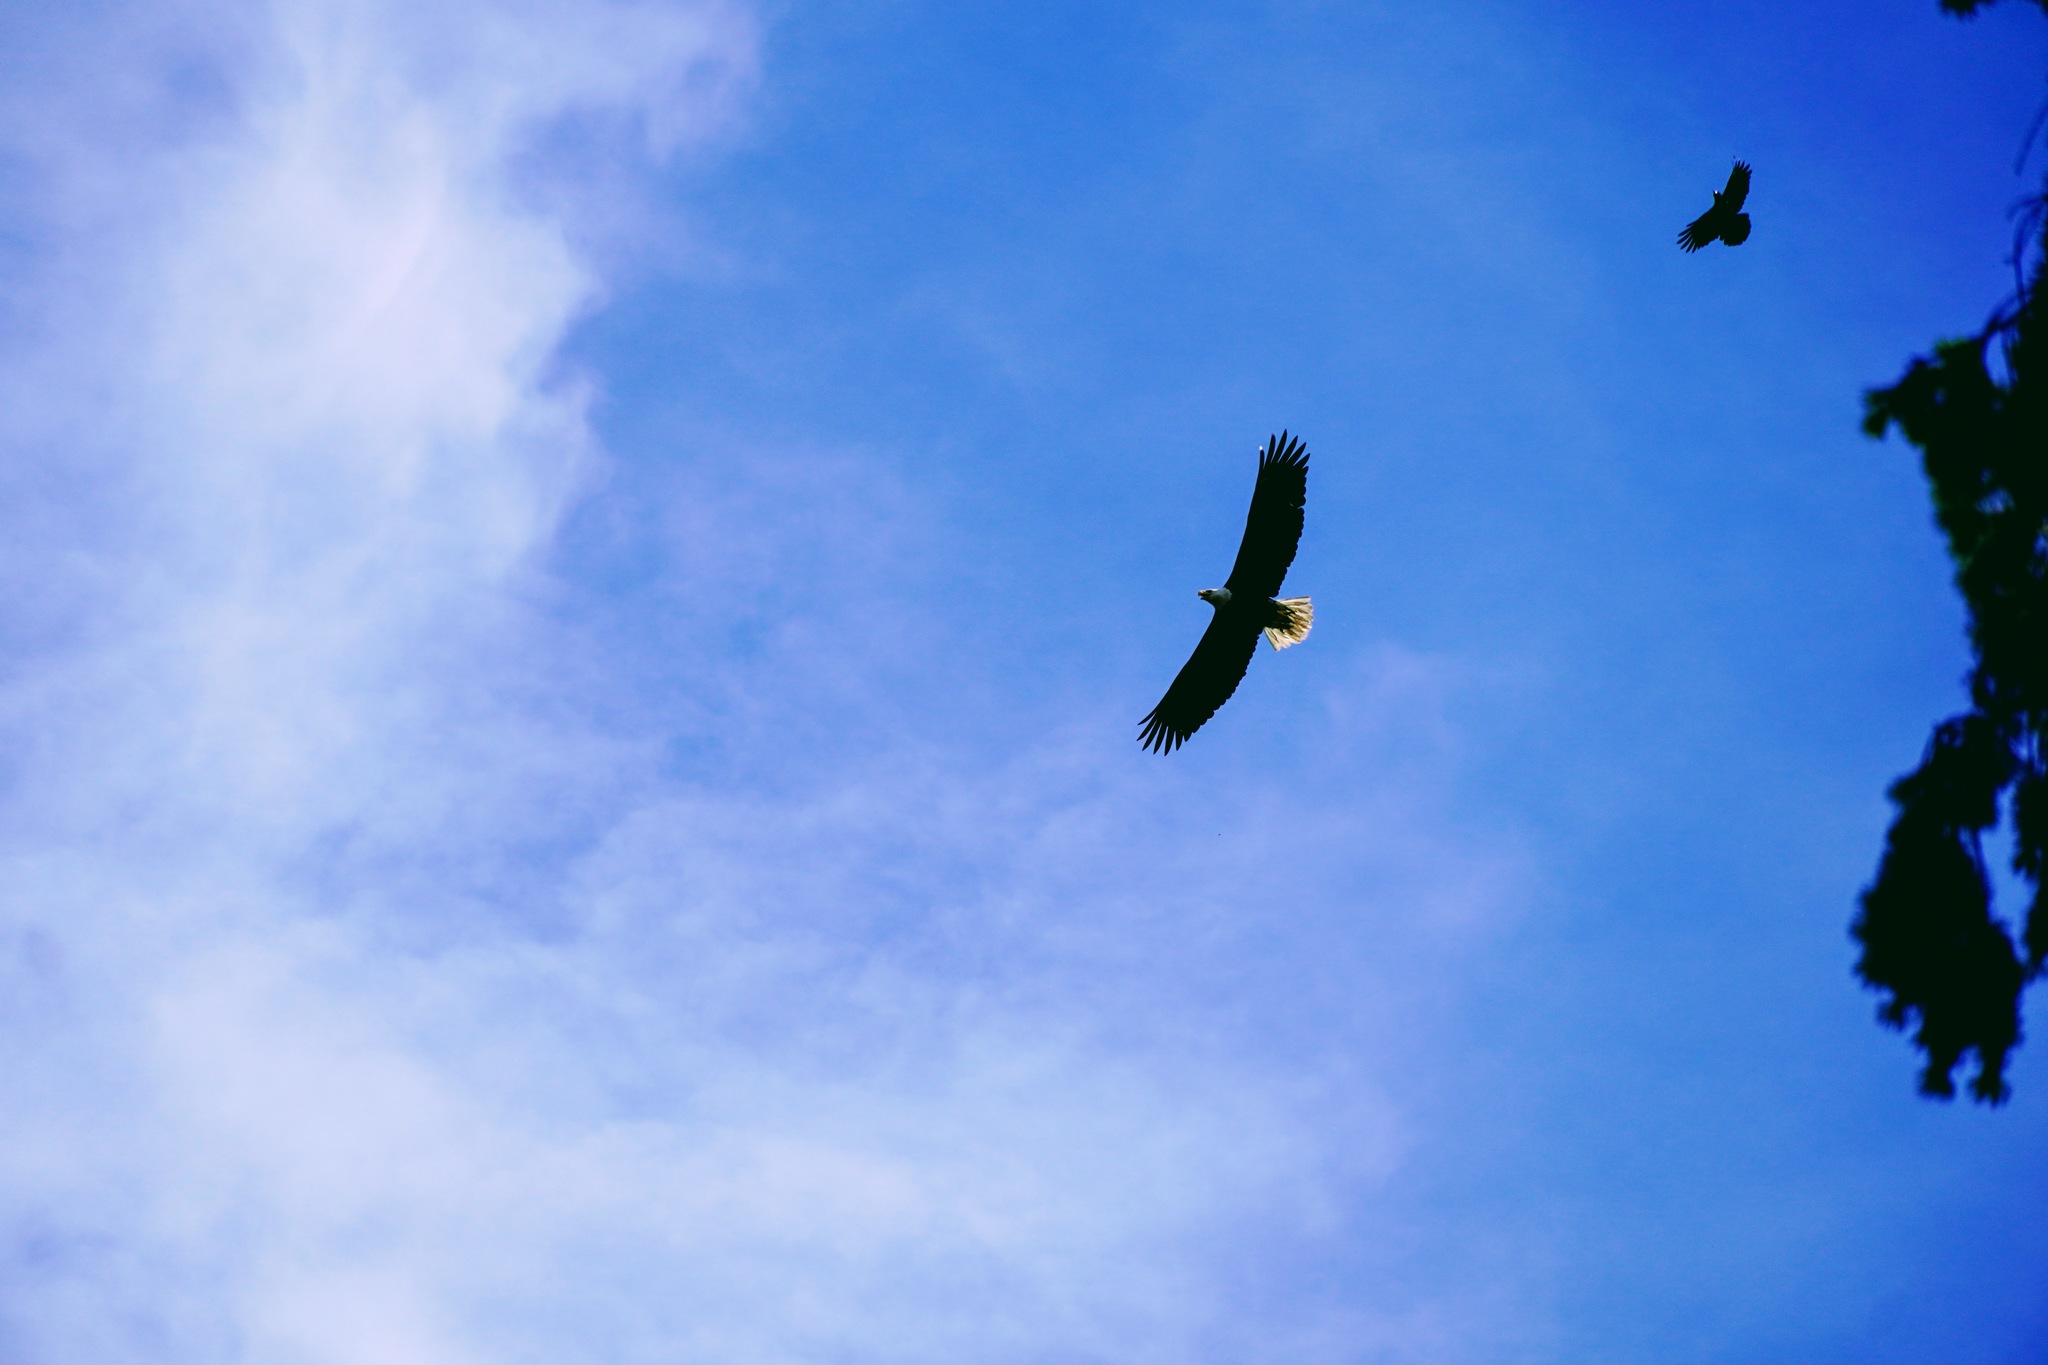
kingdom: Animalia
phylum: Chordata
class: Aves
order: Accipitriformes
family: Accipitridae
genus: Haliaeetus
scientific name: Haliaeetus leucocephalus
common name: Bald eagle
